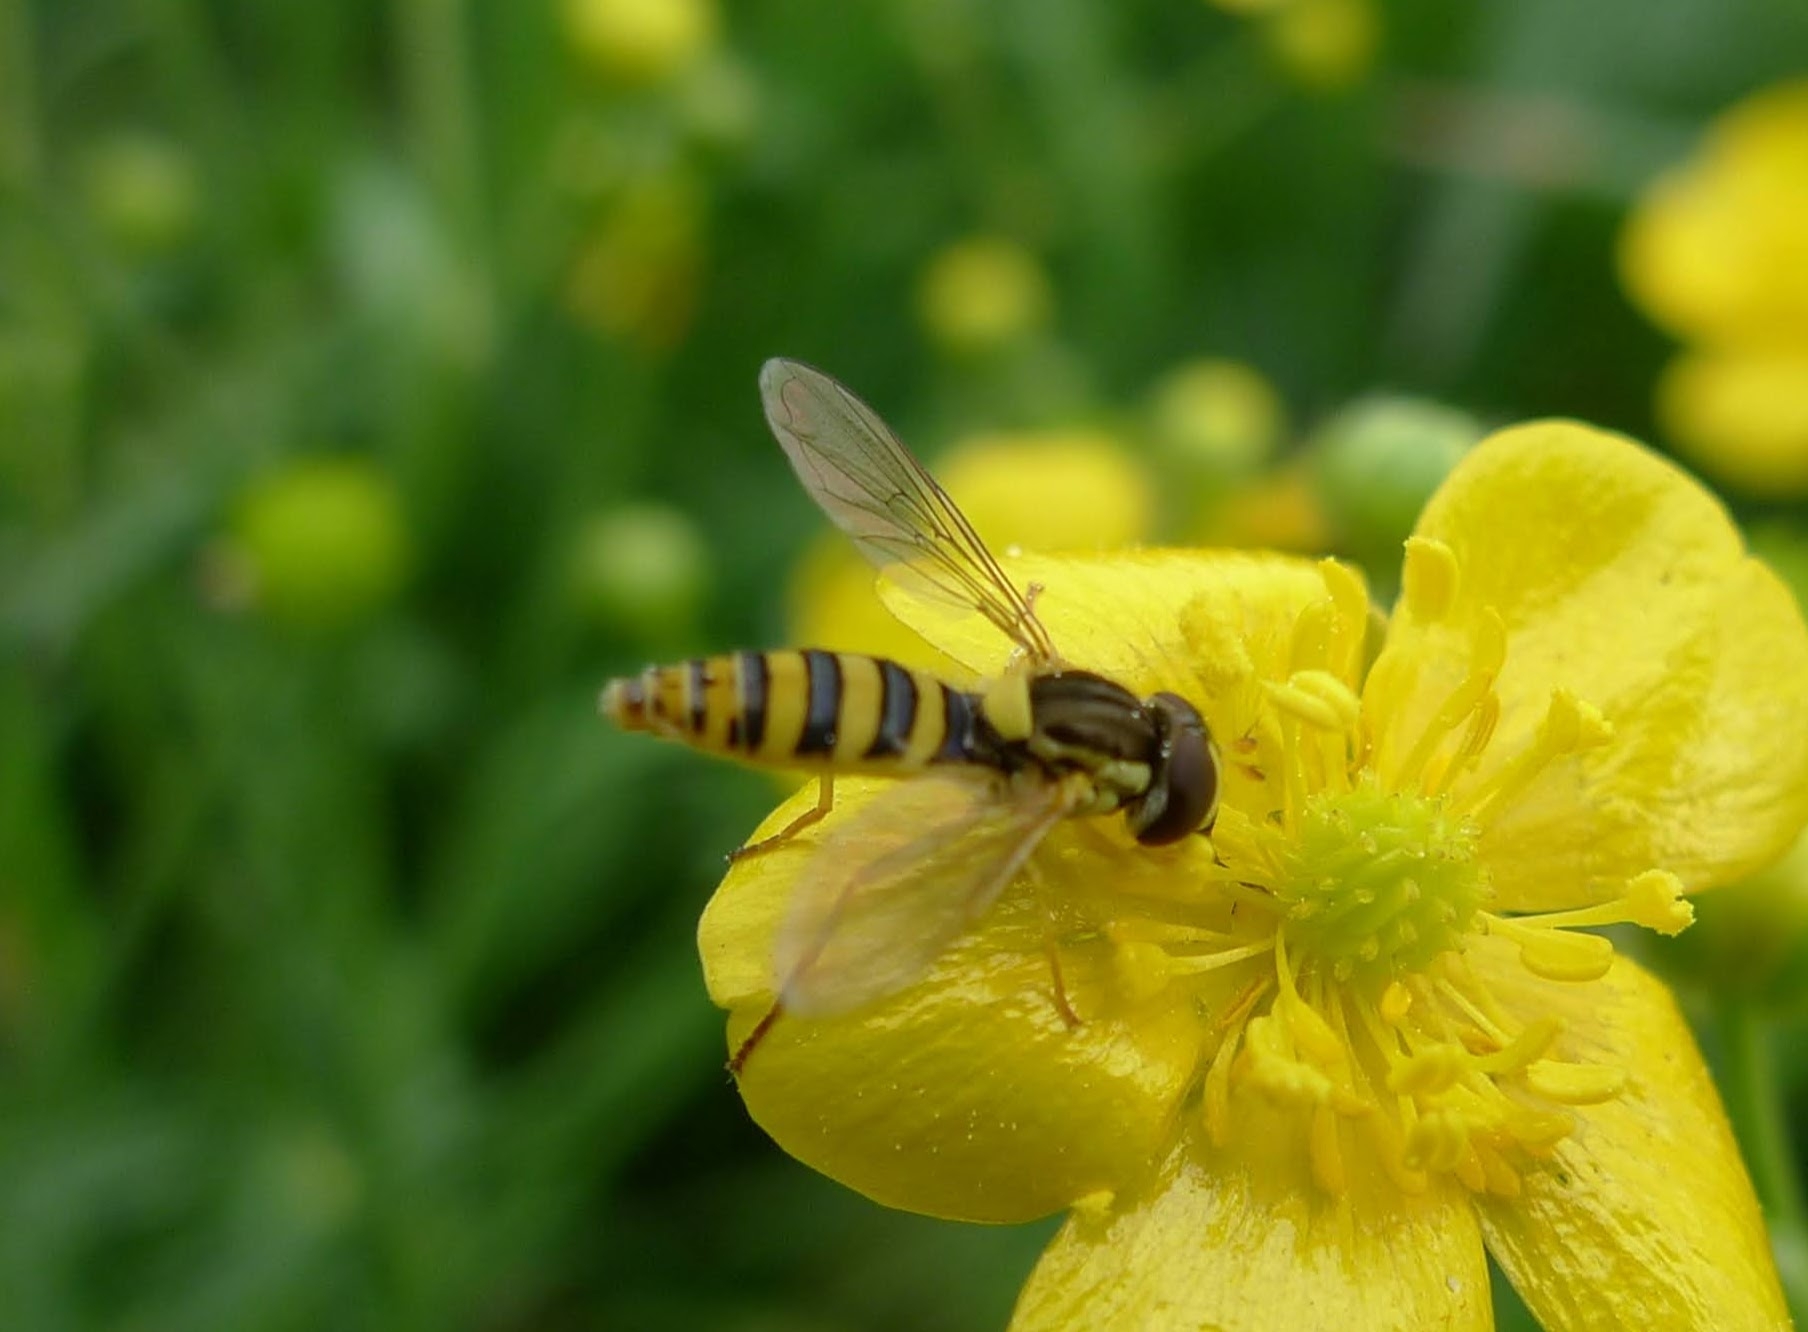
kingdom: Animalia
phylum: Arthropoda
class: Insecta
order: Diptera
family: Syrphidae
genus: Sphaerophoria
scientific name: Sphaerophoria
